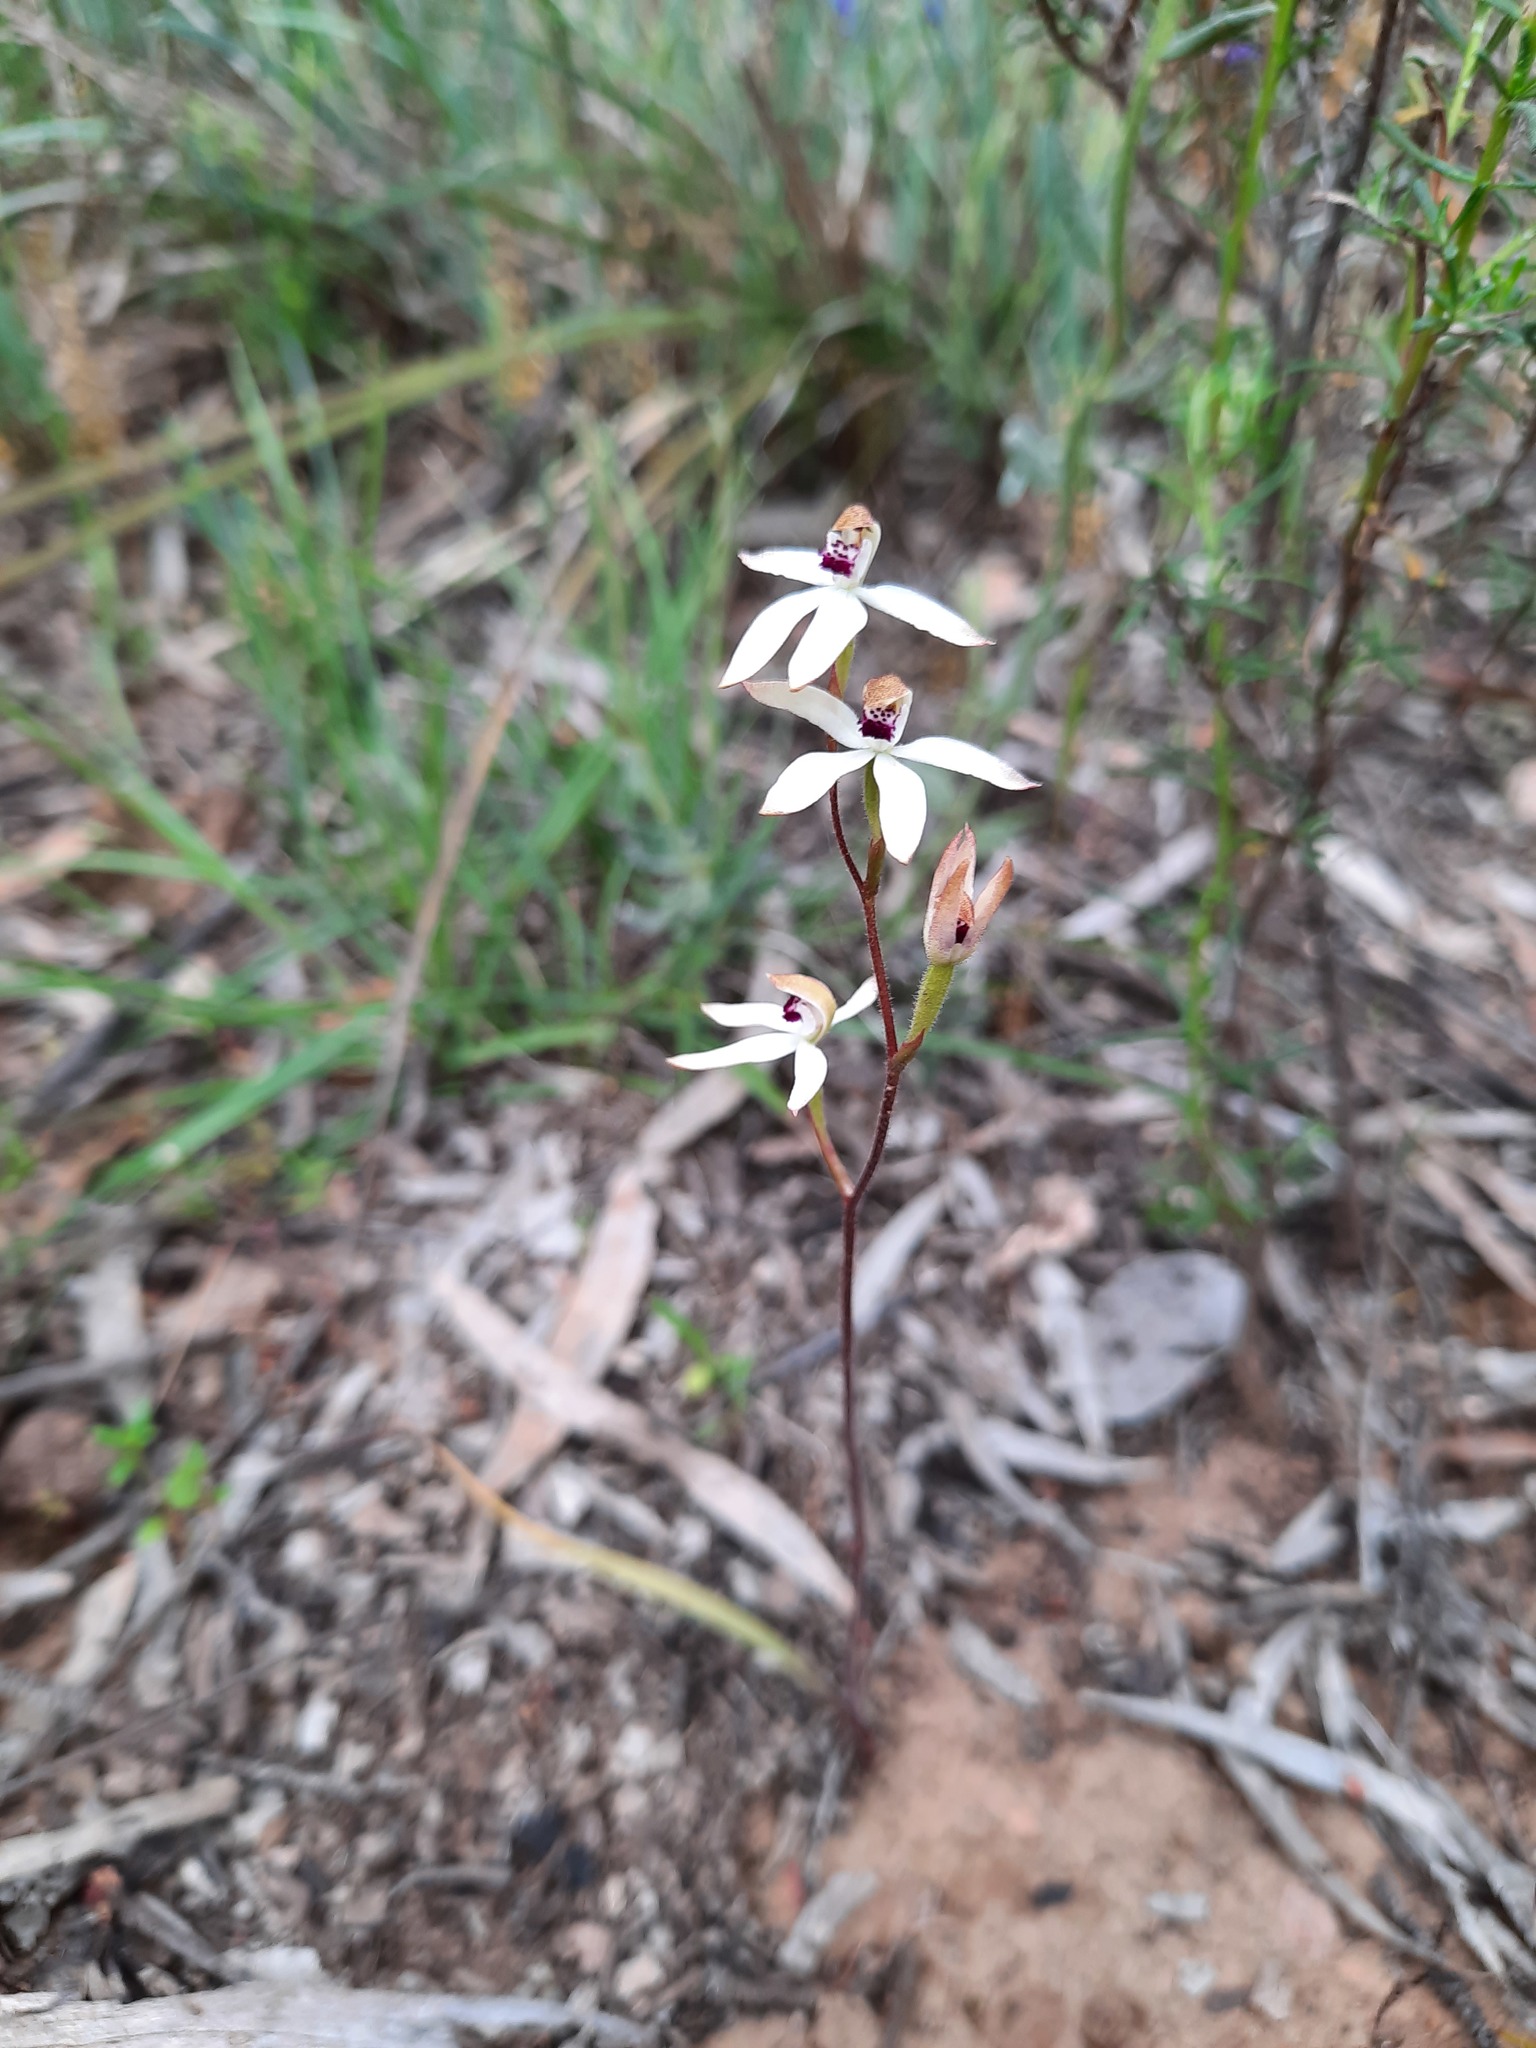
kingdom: Plantae
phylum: Tracheophyta
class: Liliopsida
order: Asparagales
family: Orchidaceae
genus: Caladenia
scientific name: Caladenia cucullata
